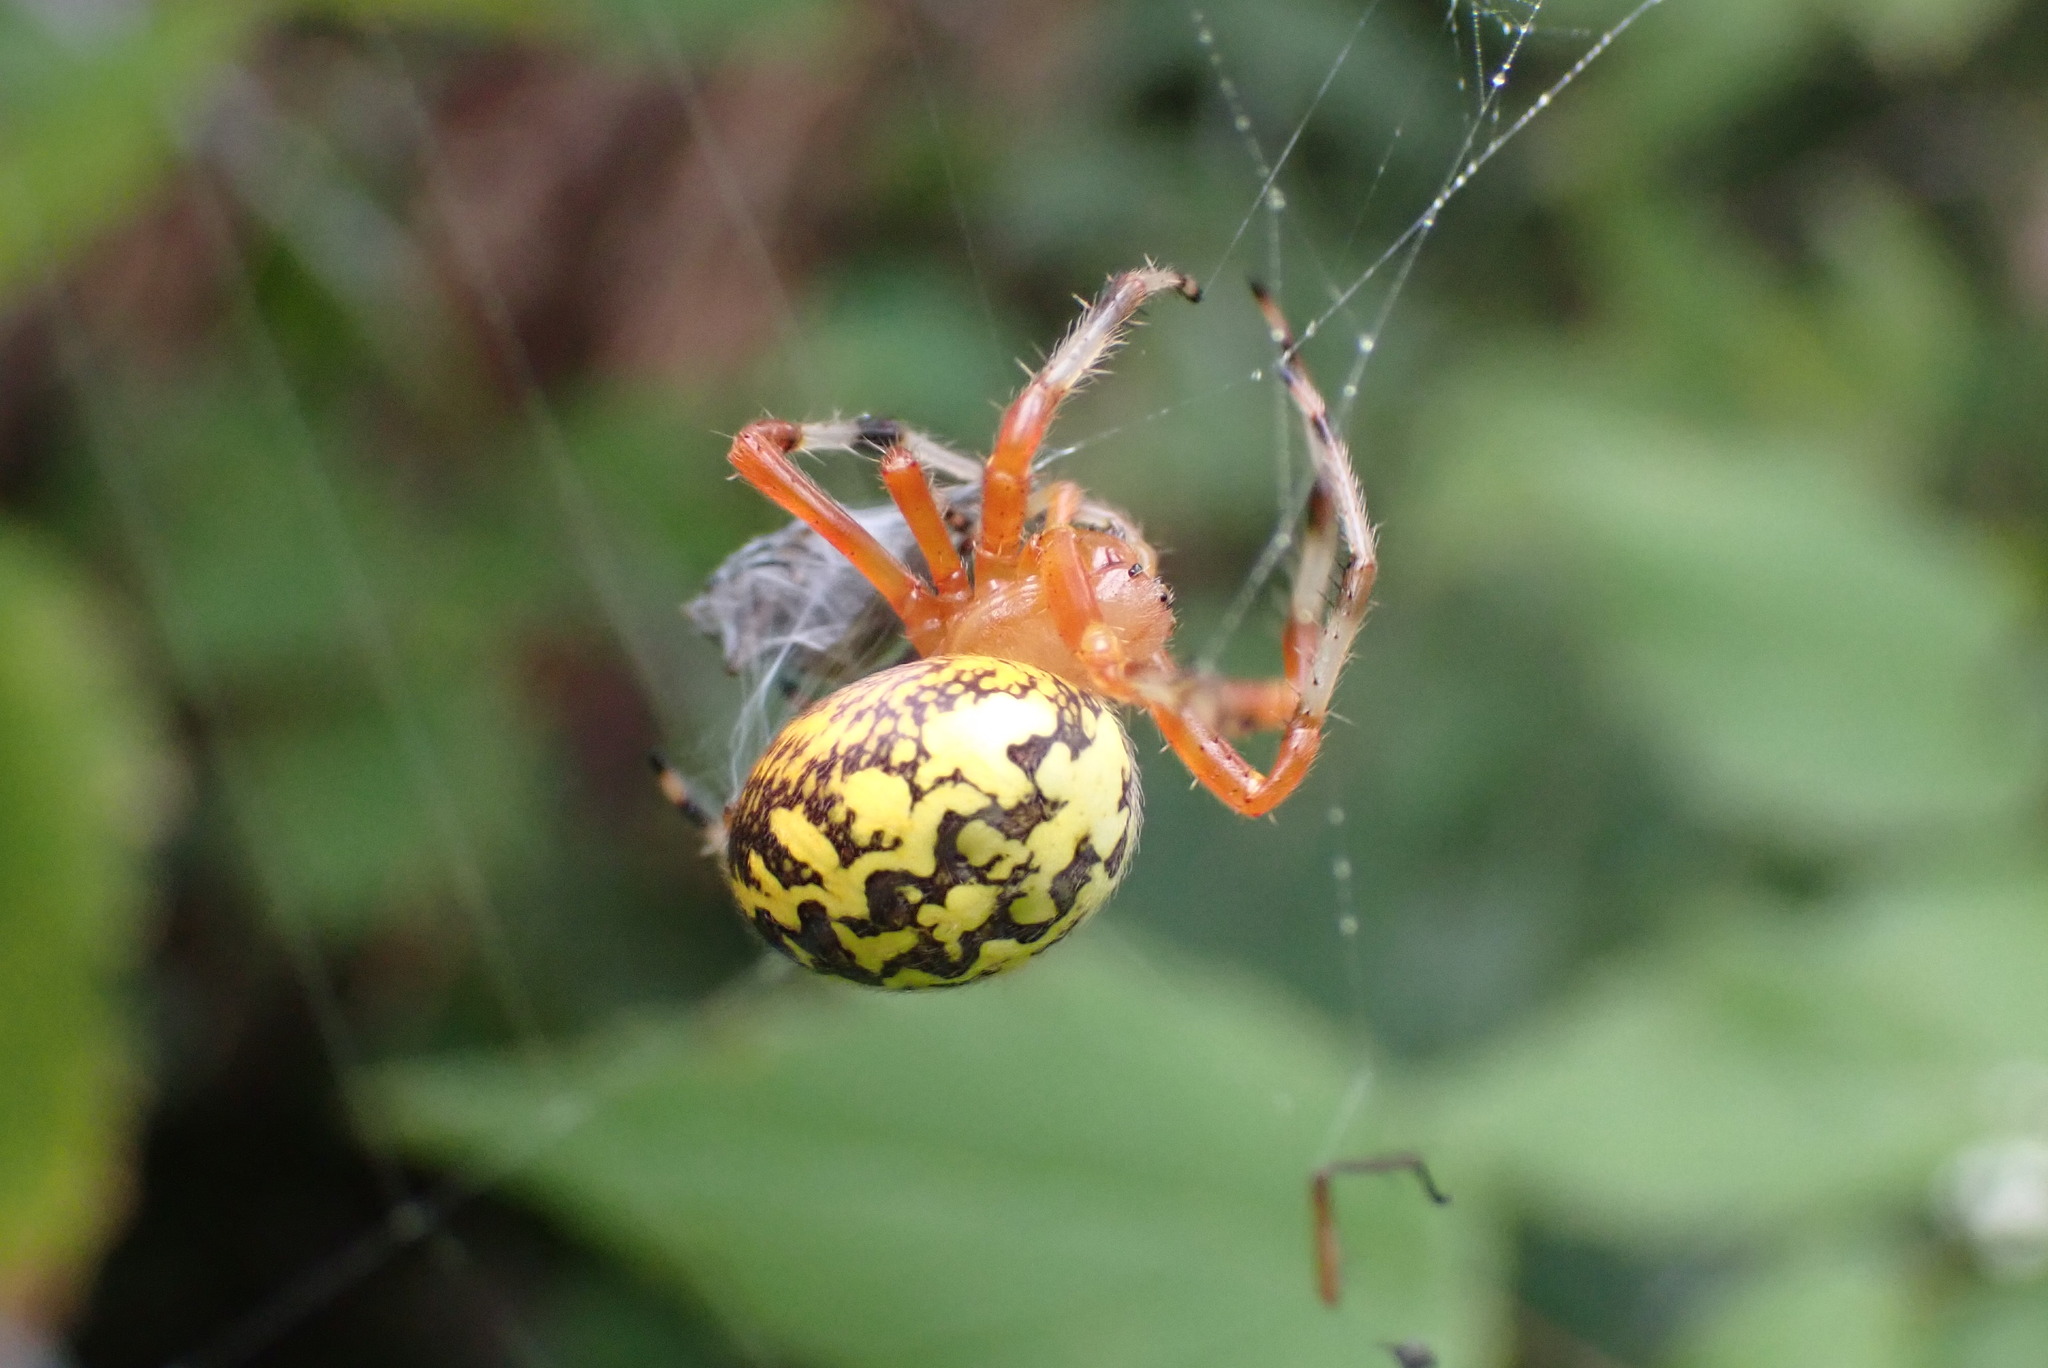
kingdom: Animalia
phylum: Arthropoda
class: Arachnida
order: Araneae
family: Araneidae
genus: Araneus
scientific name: Araneus marmoreus
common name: Marbled orbweaver
